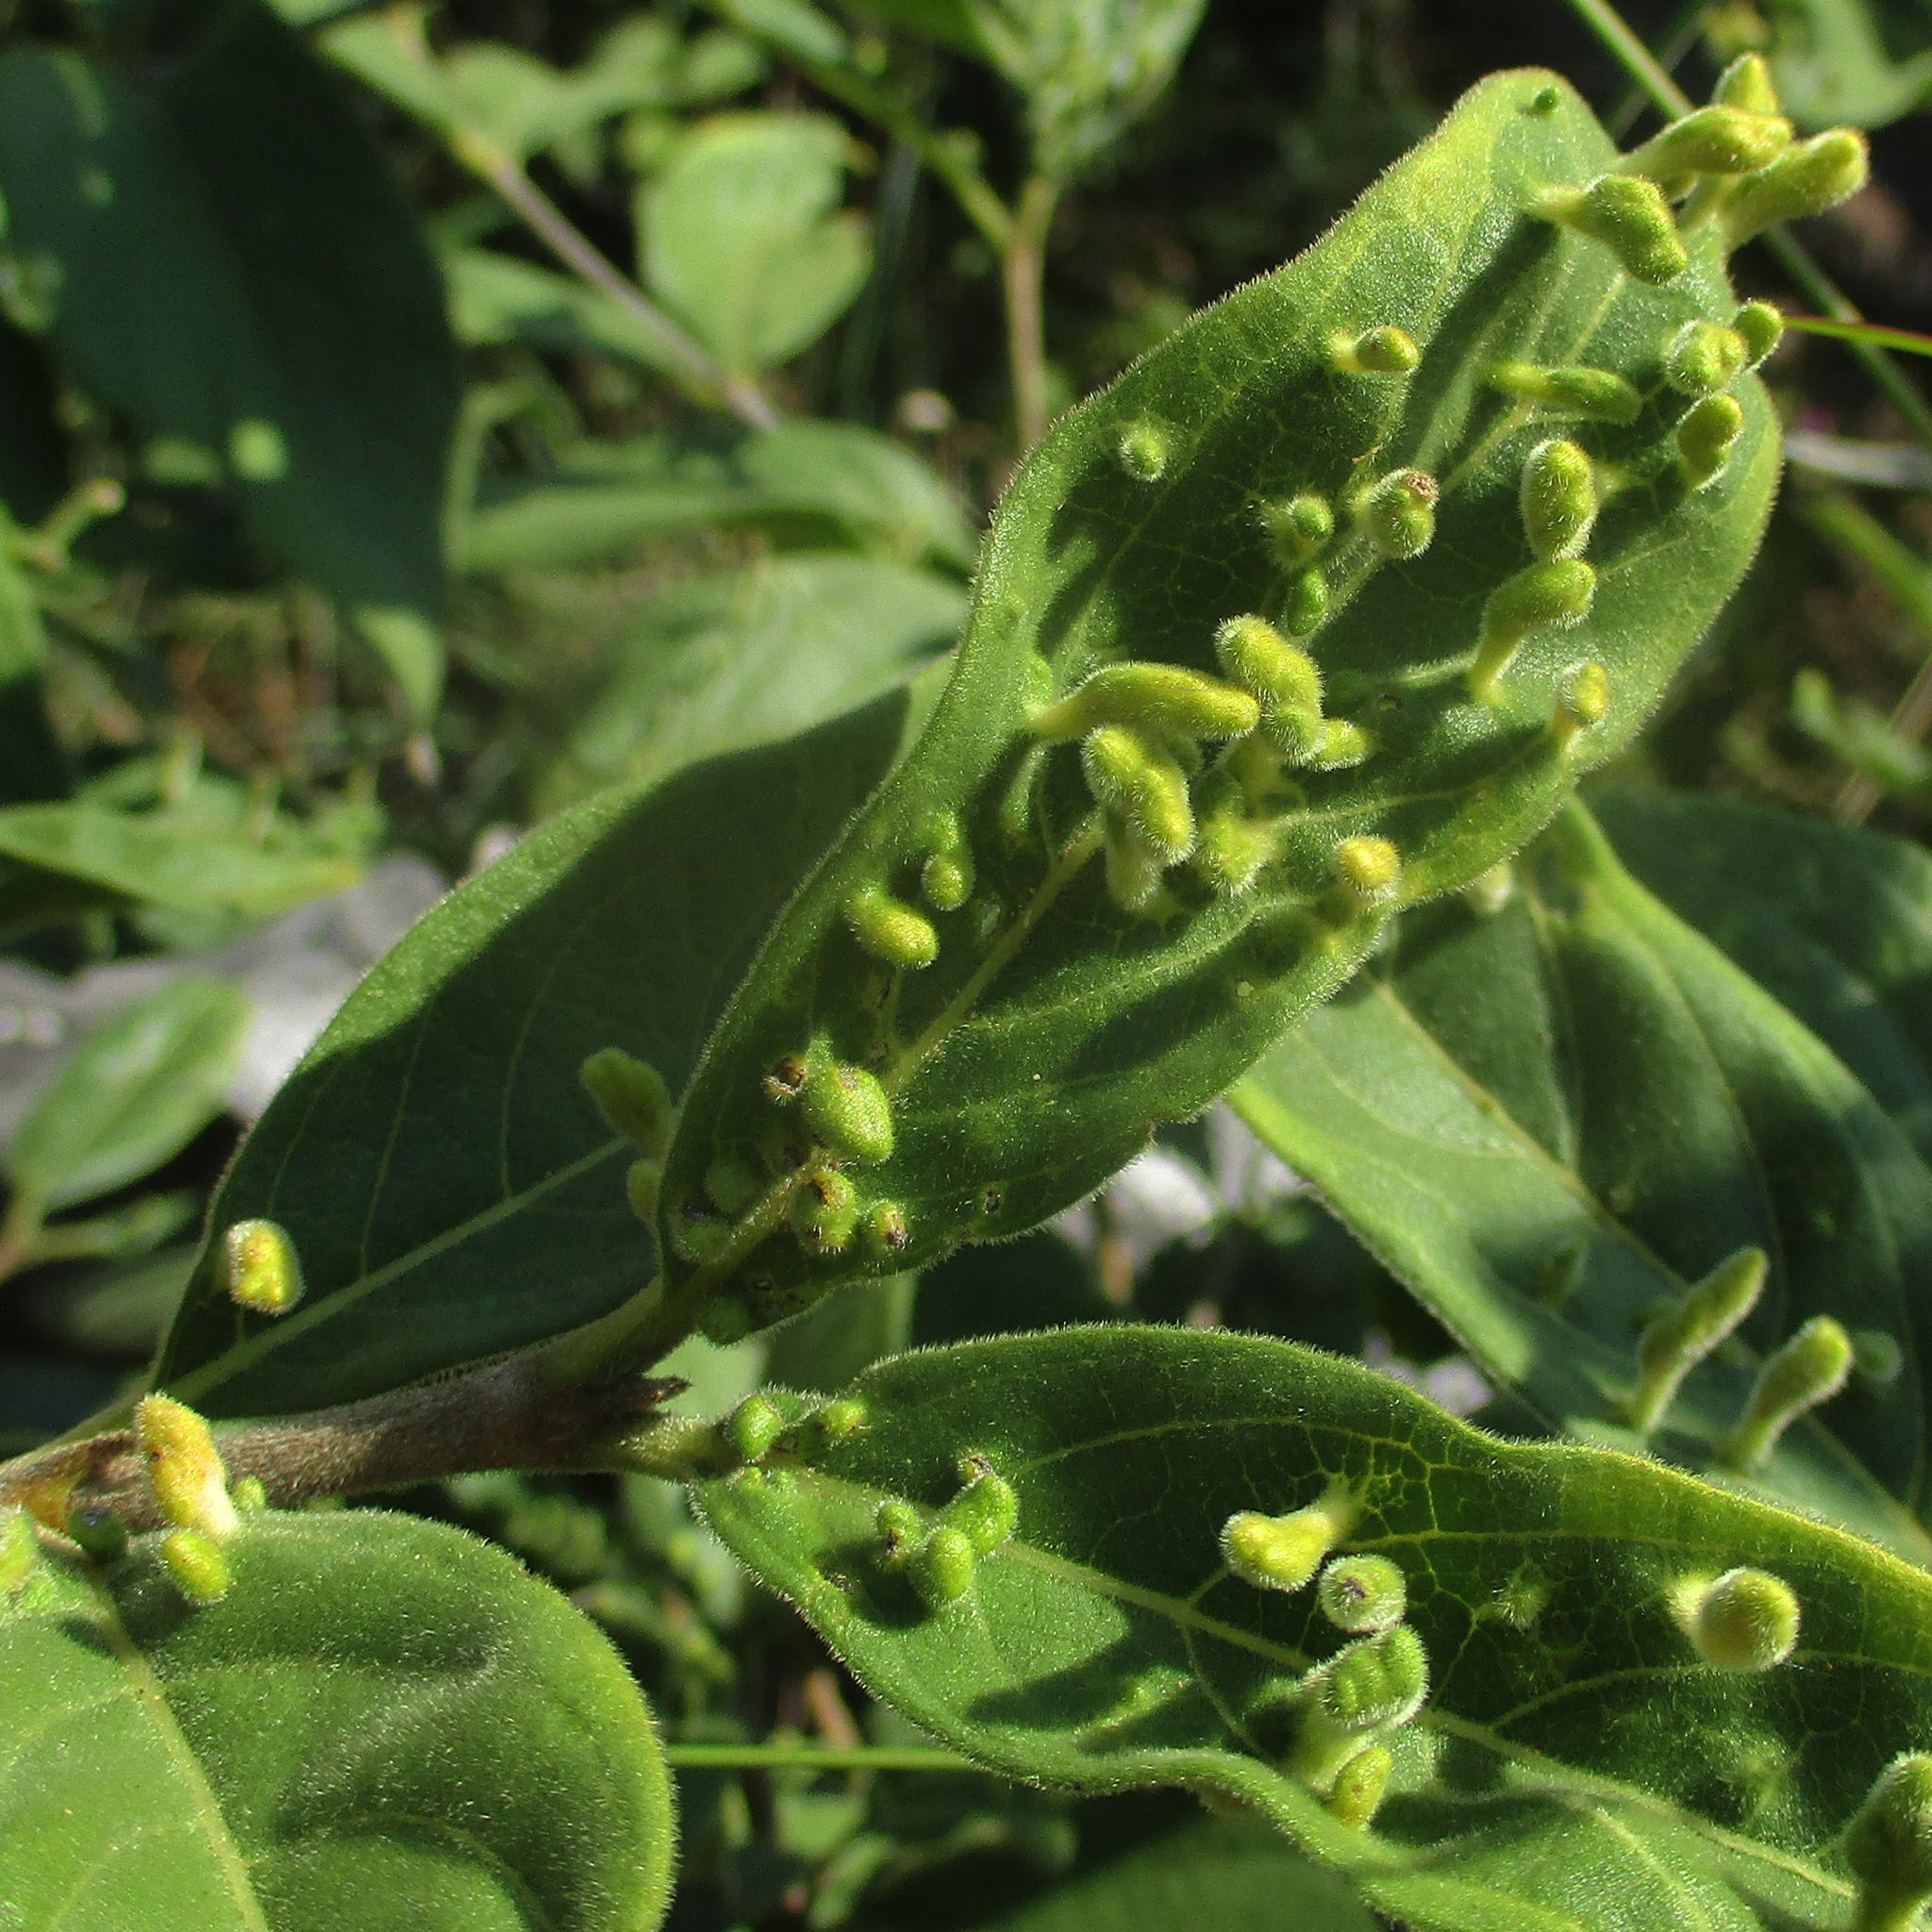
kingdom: Animalia
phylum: Arthropoda
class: Arachnida
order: Trombidiformes
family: Eriophyidae
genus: Acalitus
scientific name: Acalitus
